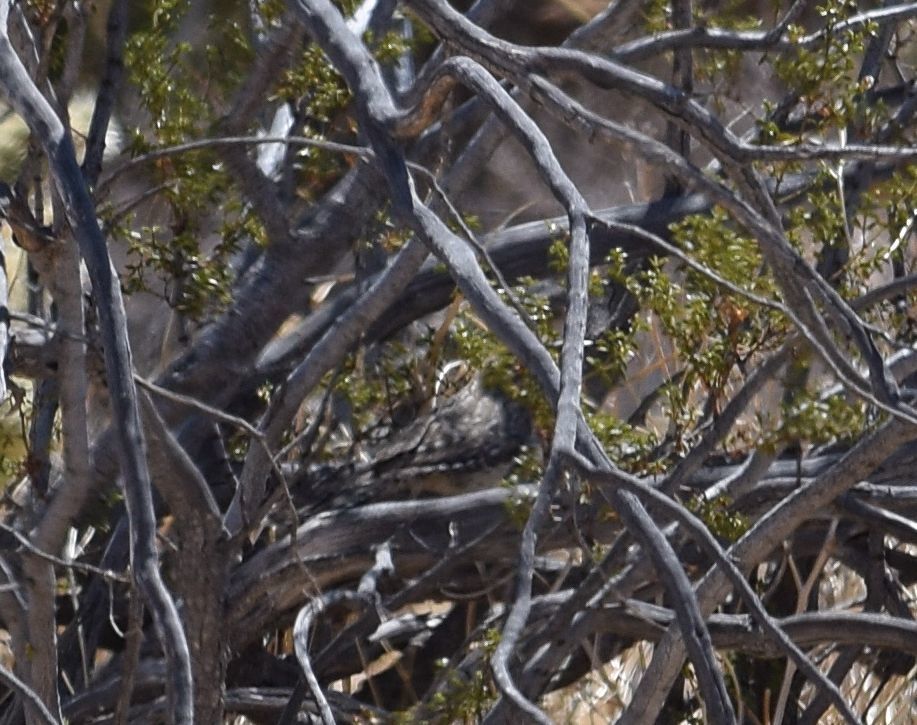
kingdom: Animalia
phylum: Chordata
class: Aves
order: Passeriformes
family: Troglodytidae
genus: Campylorhynchus
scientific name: Campylorhynchus brunneicapillus
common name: Cactus wren
